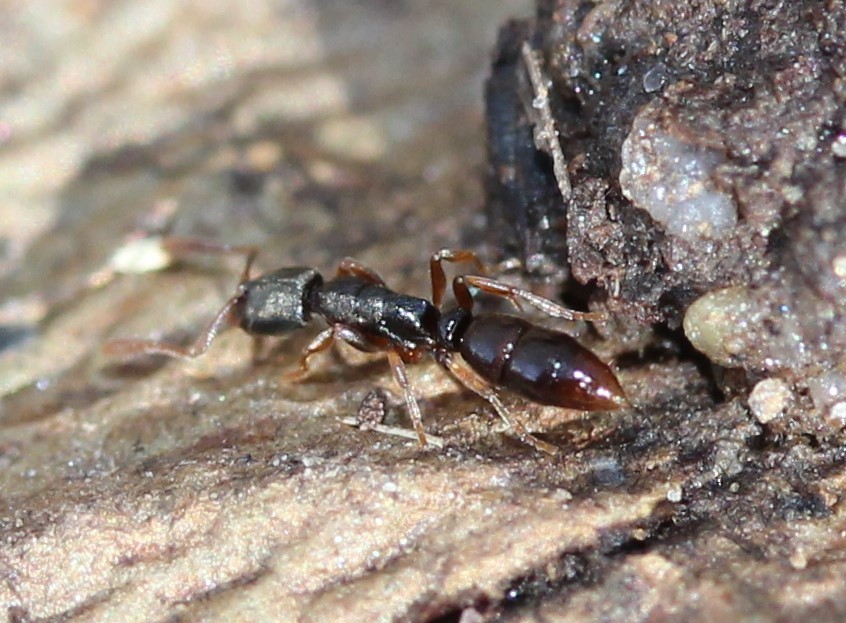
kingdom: Animalia
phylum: Arthropoda
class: Insecta
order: Hymenoptera
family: Formicidae
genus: Ponera
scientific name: Ponera pennsylvanica
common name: Pennsylvania ponera
